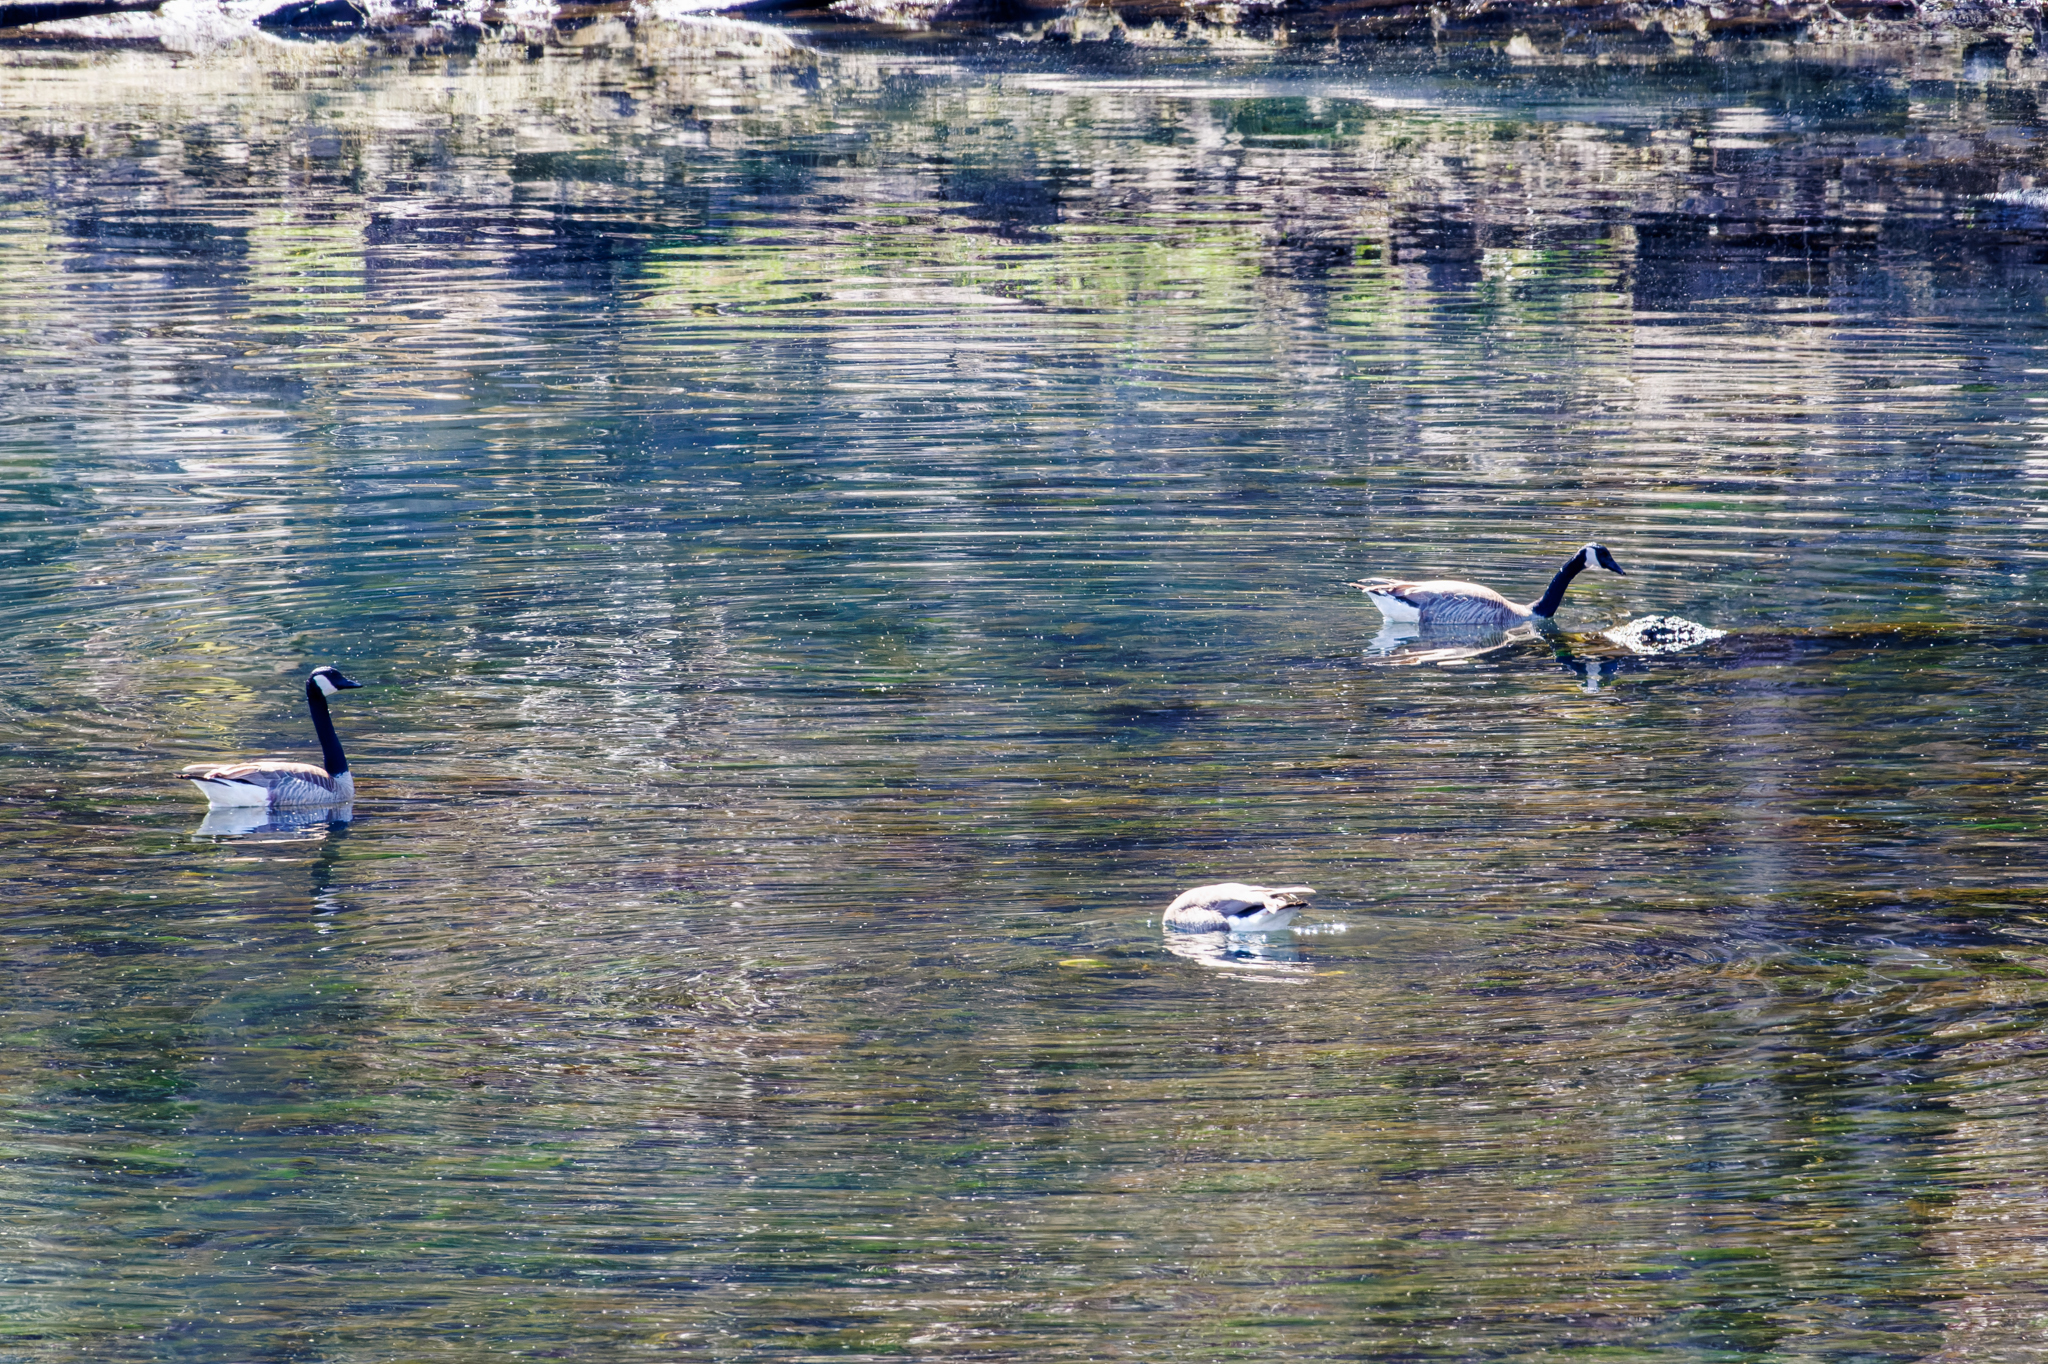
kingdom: Animalia
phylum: Chordata
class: Aves
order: Anseriformes
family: Anatidae
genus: Branta
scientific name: Branta canadensis
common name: Canada goose
